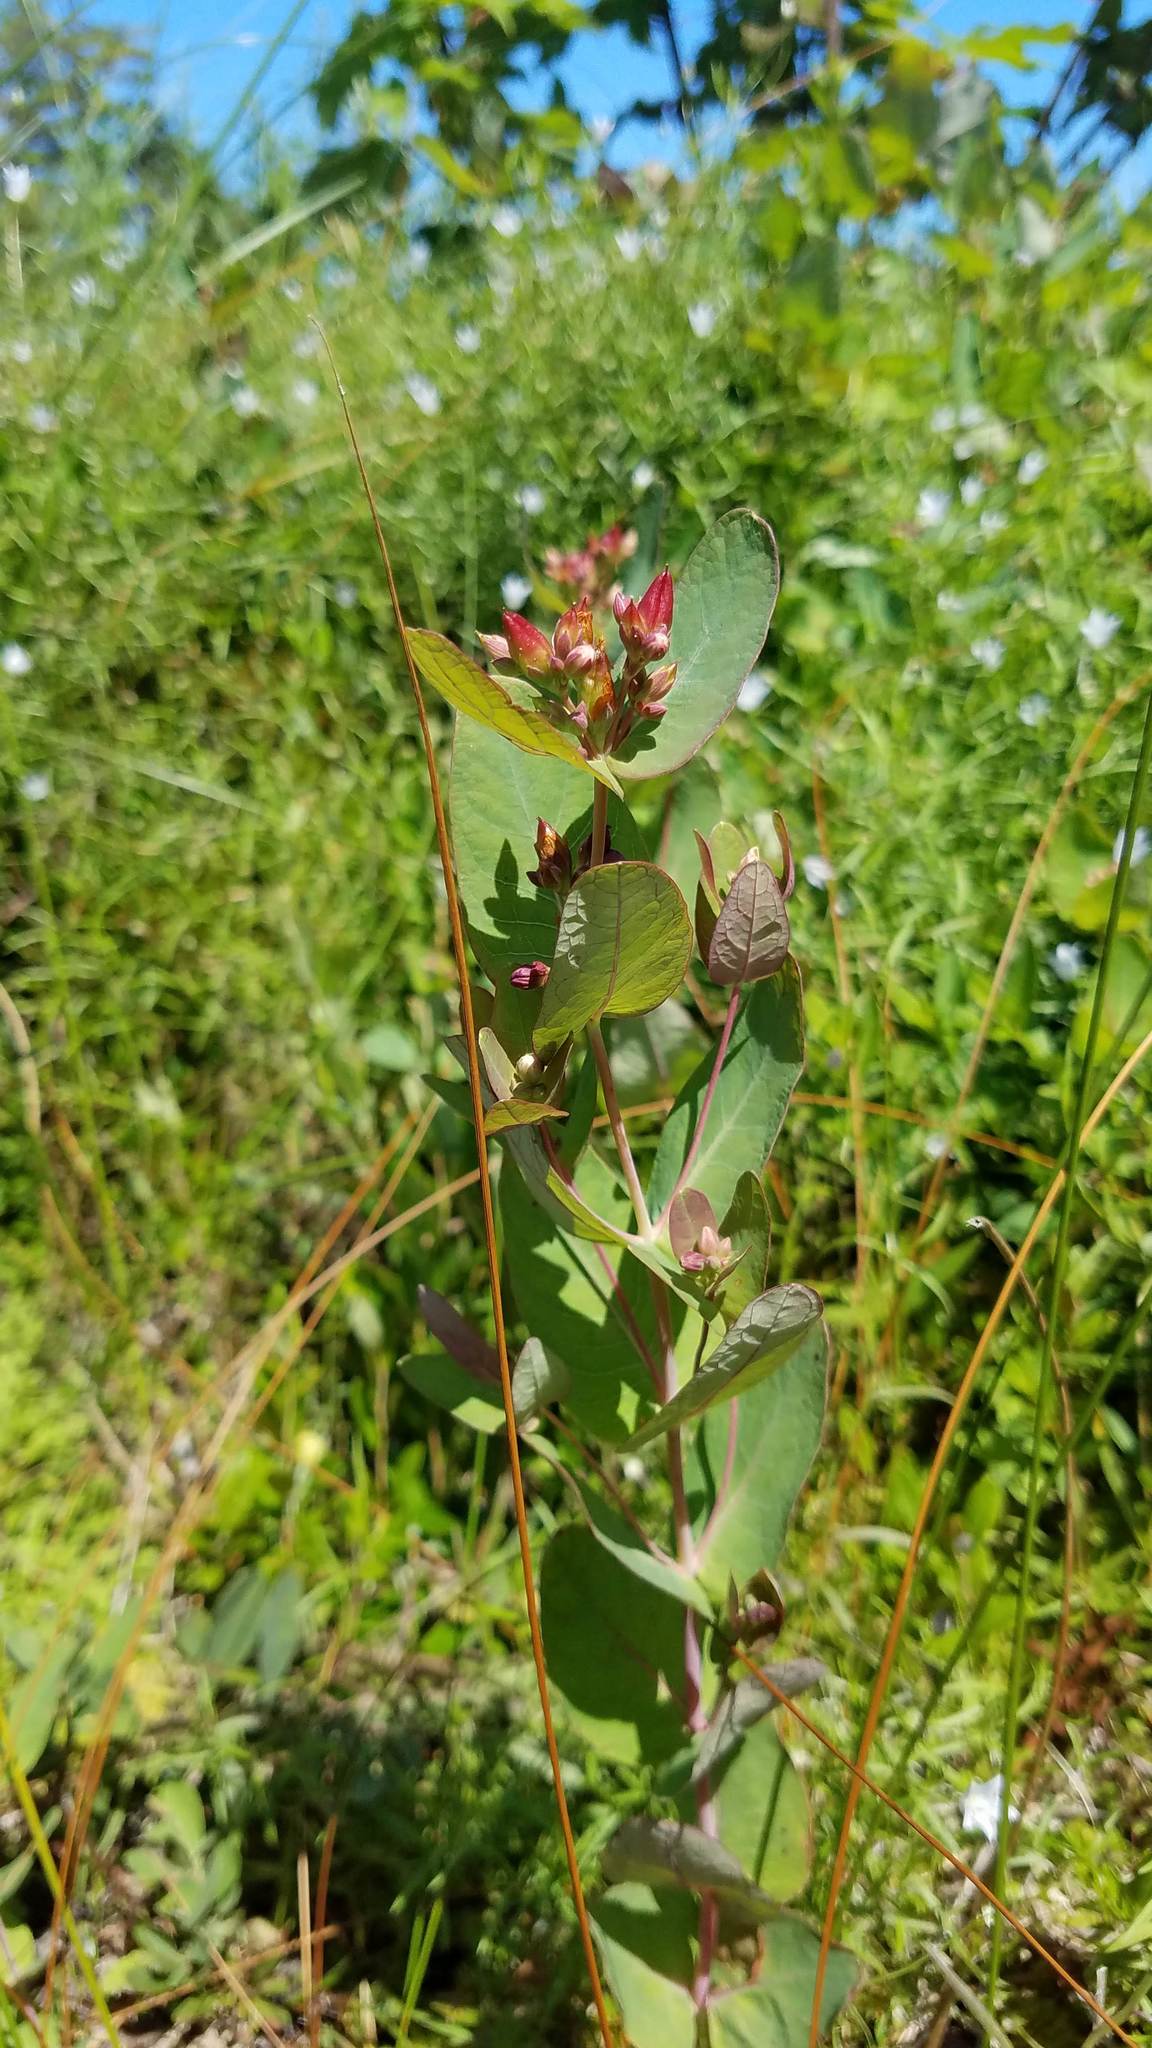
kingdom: Plantae
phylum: Tracheophyta
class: Magnoliopsida
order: Malpighiales
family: Hypericaceae
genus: Triadenum
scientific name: Triadenum fraseri
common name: Fraser's marsh st. johnswort
